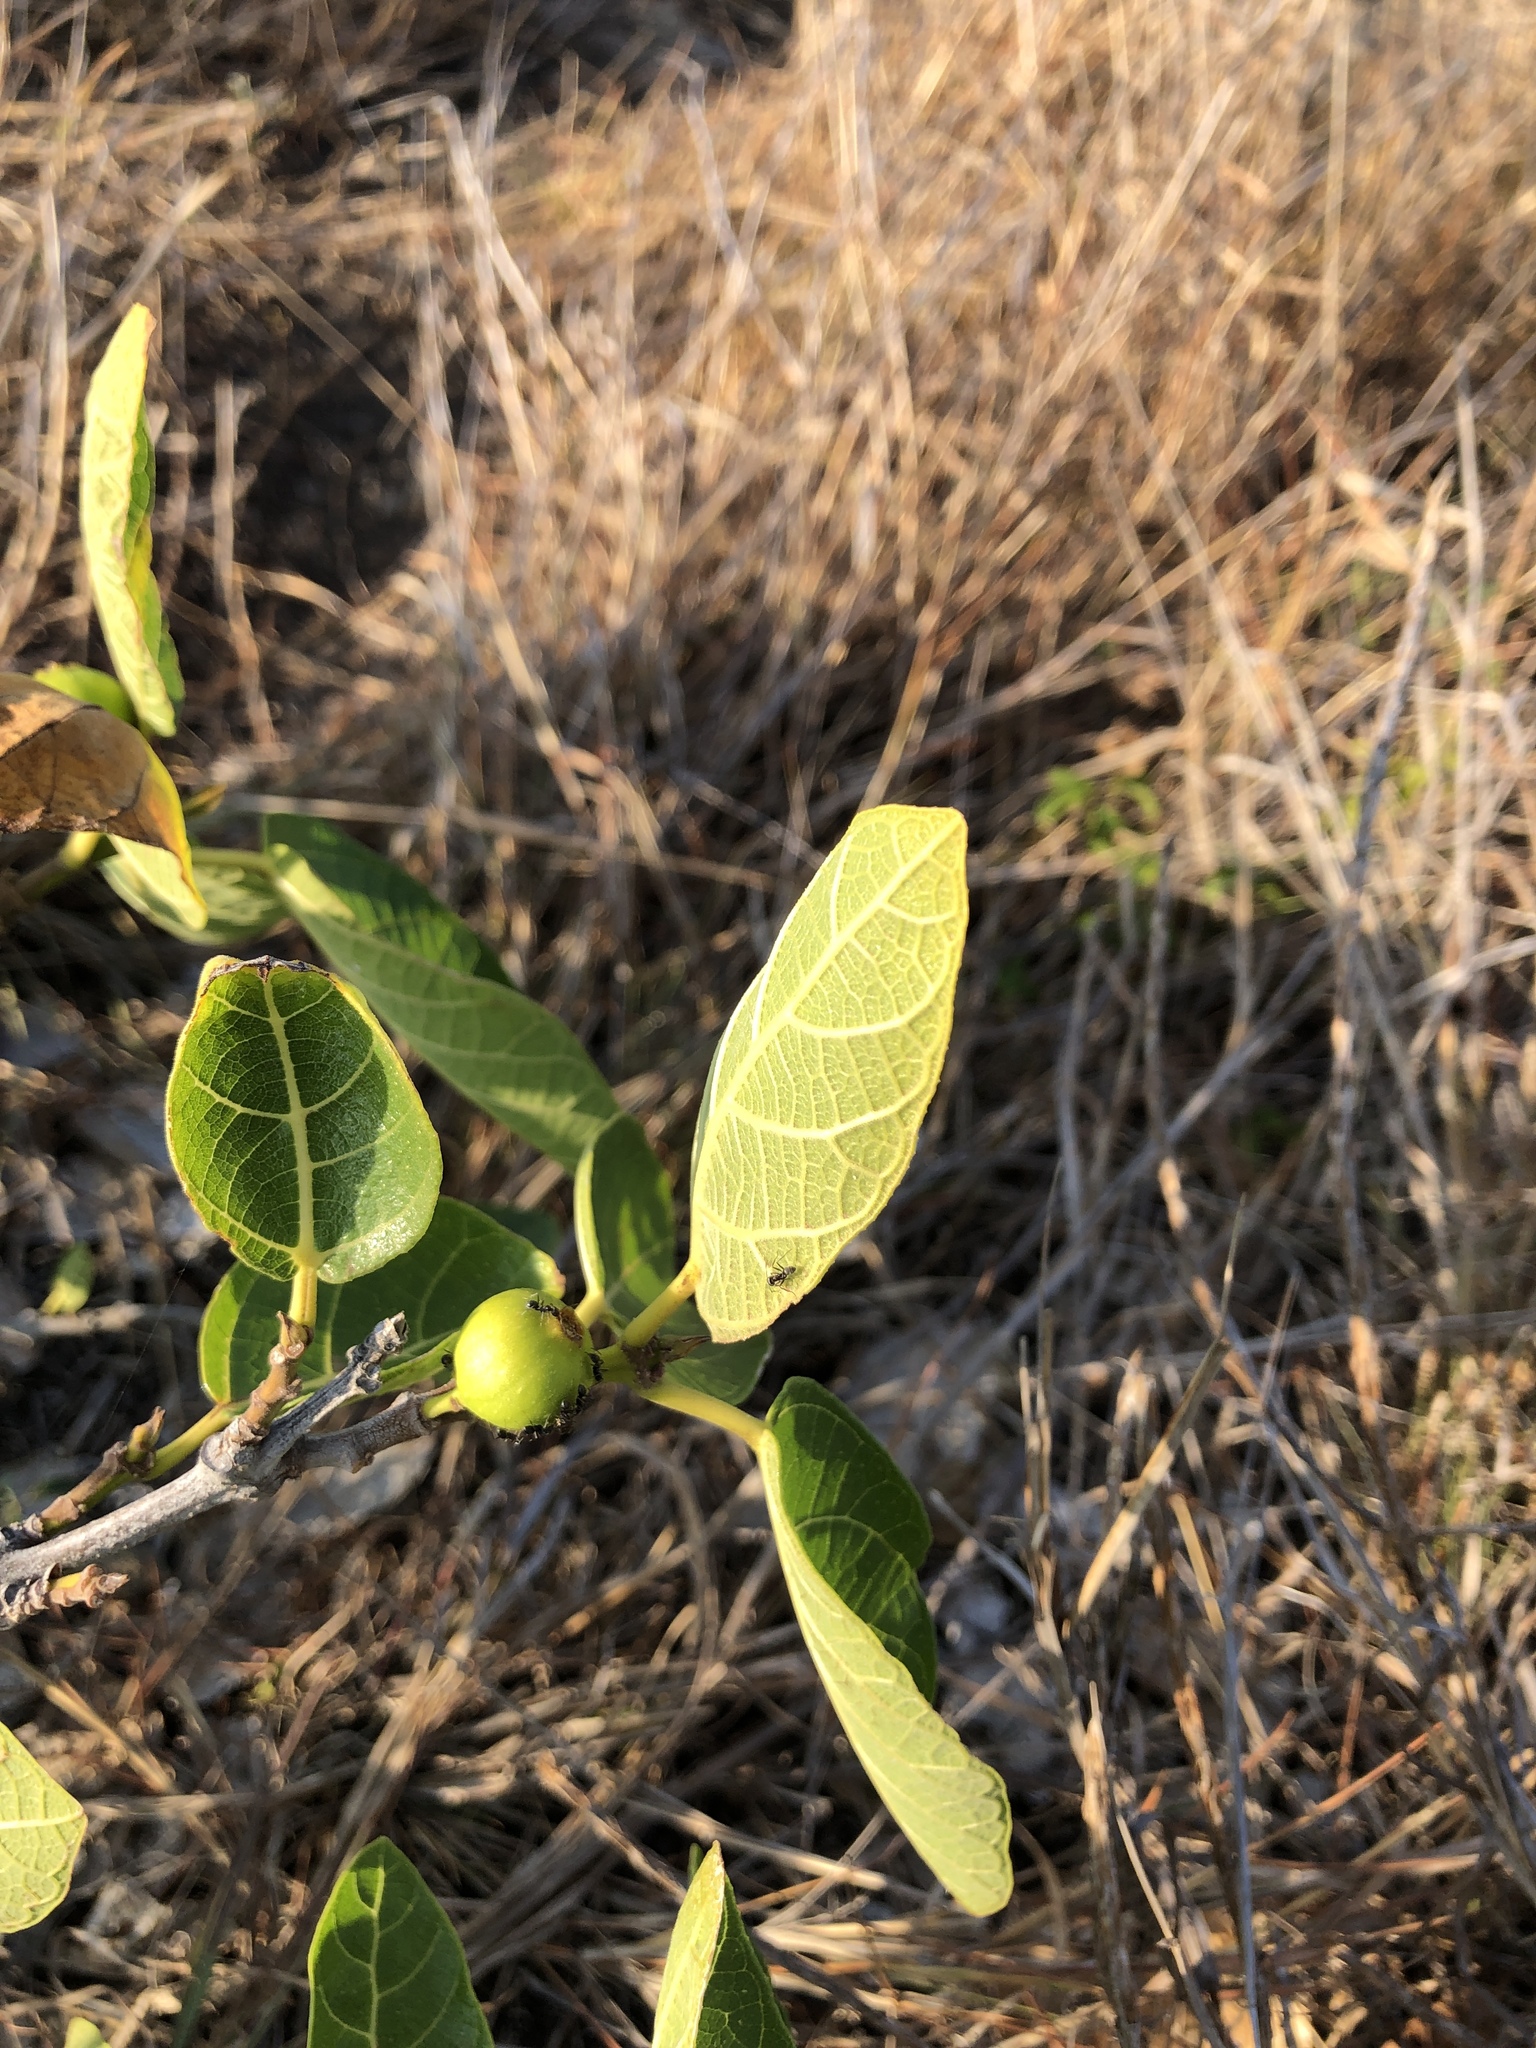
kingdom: Plantae
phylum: Tracheophyta
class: Magnoliopsida
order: Rosales
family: Moraceae
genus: Ficus
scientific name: Ficus opposita
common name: Figwood
